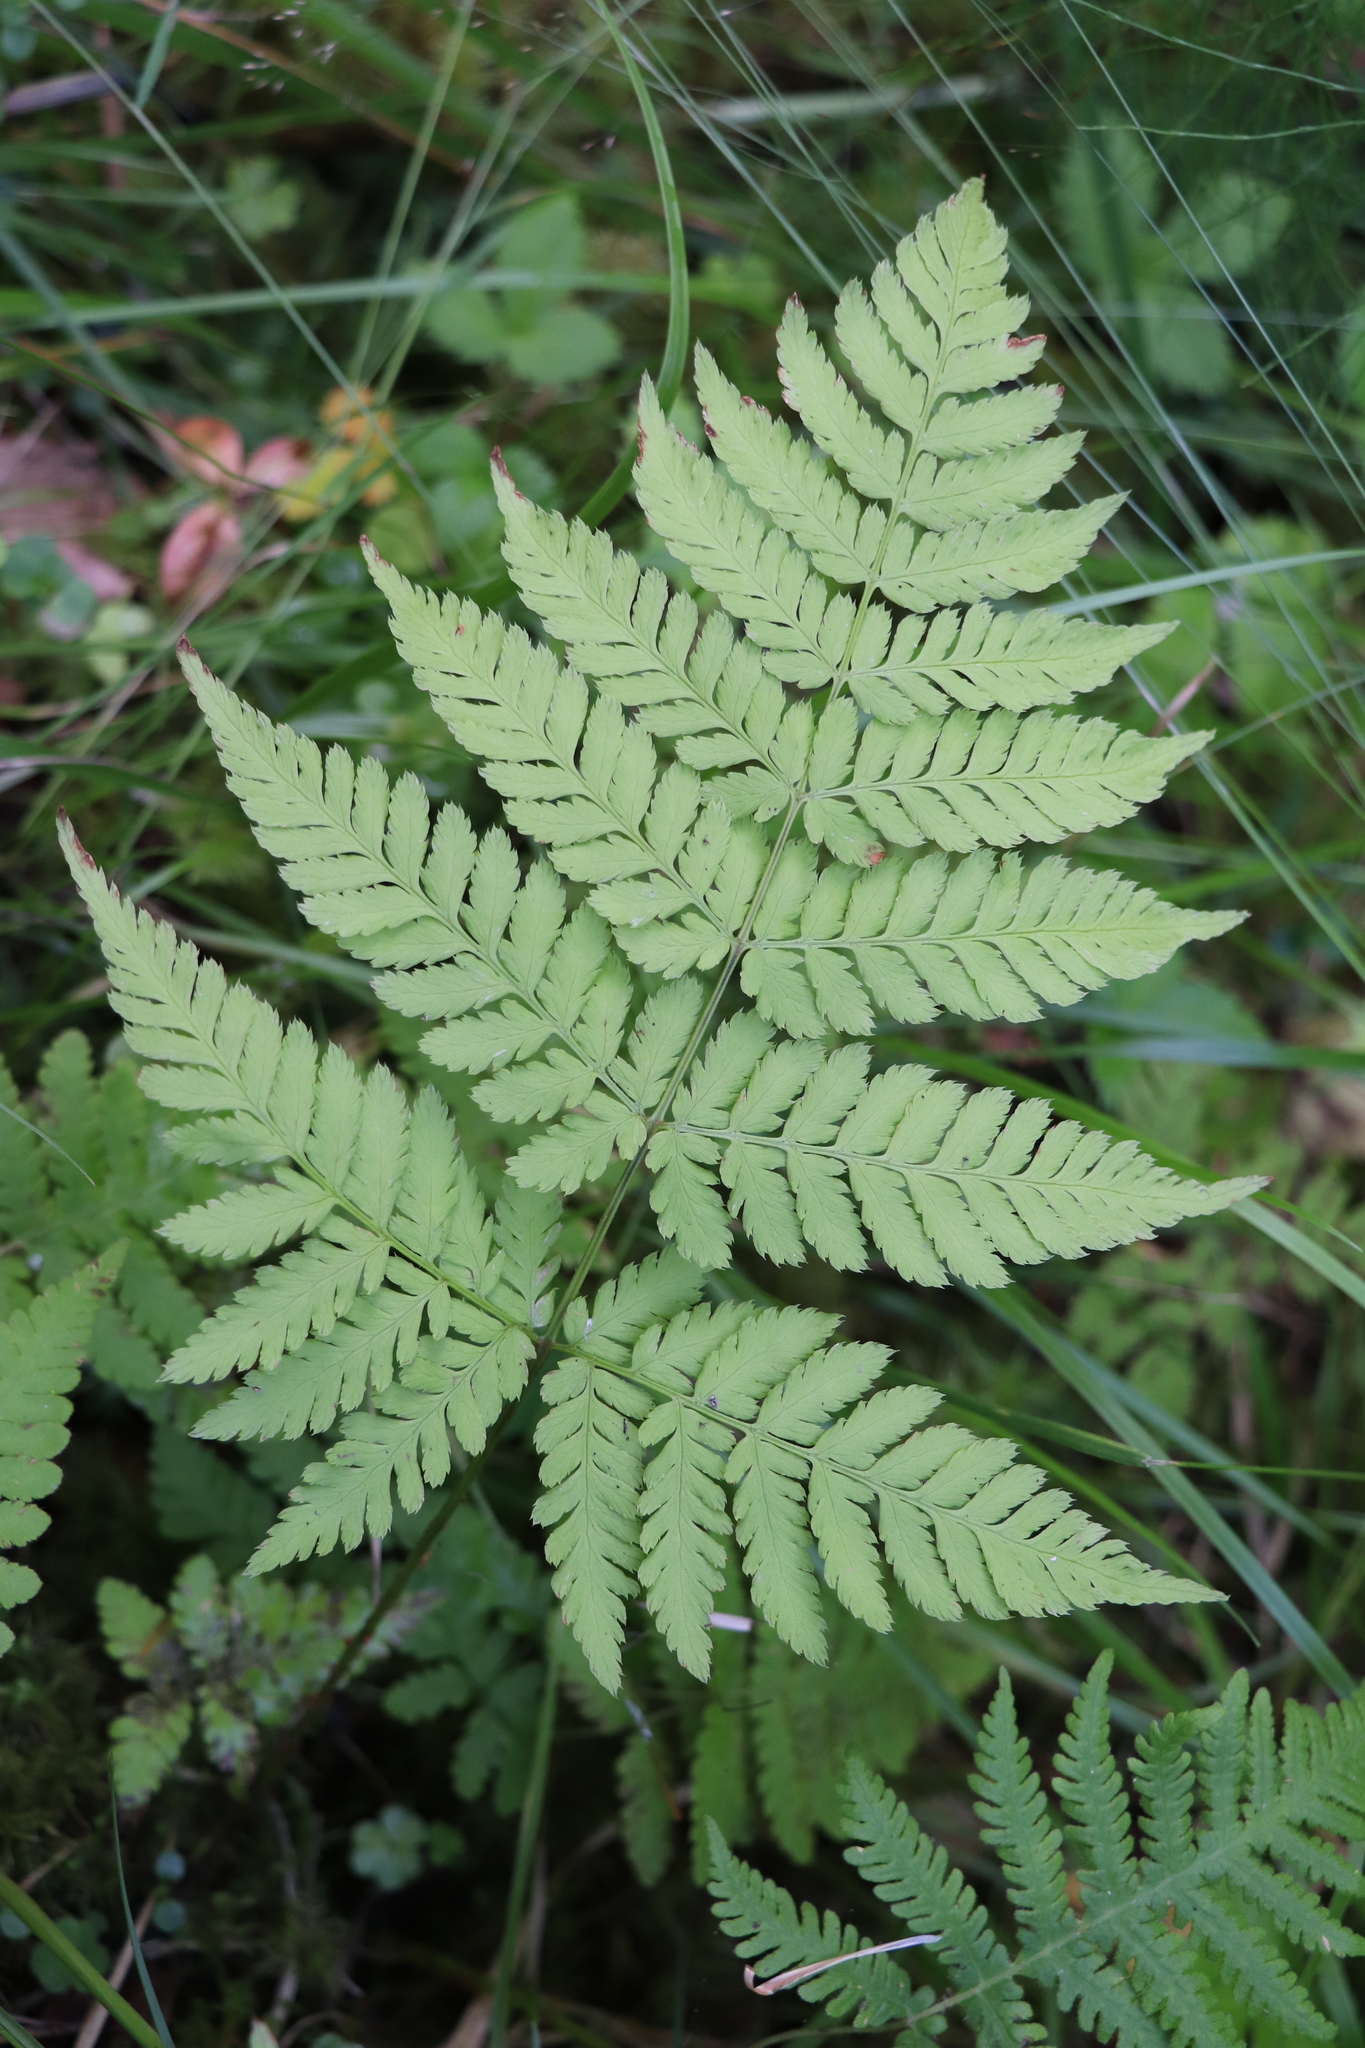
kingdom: Plantae
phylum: Tracheophyta
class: Polypodiopsida
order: Polypodiales
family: Dryopteridaceae
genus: Dryopteris
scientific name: Dryopteris expansa
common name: Northern buckler fern
